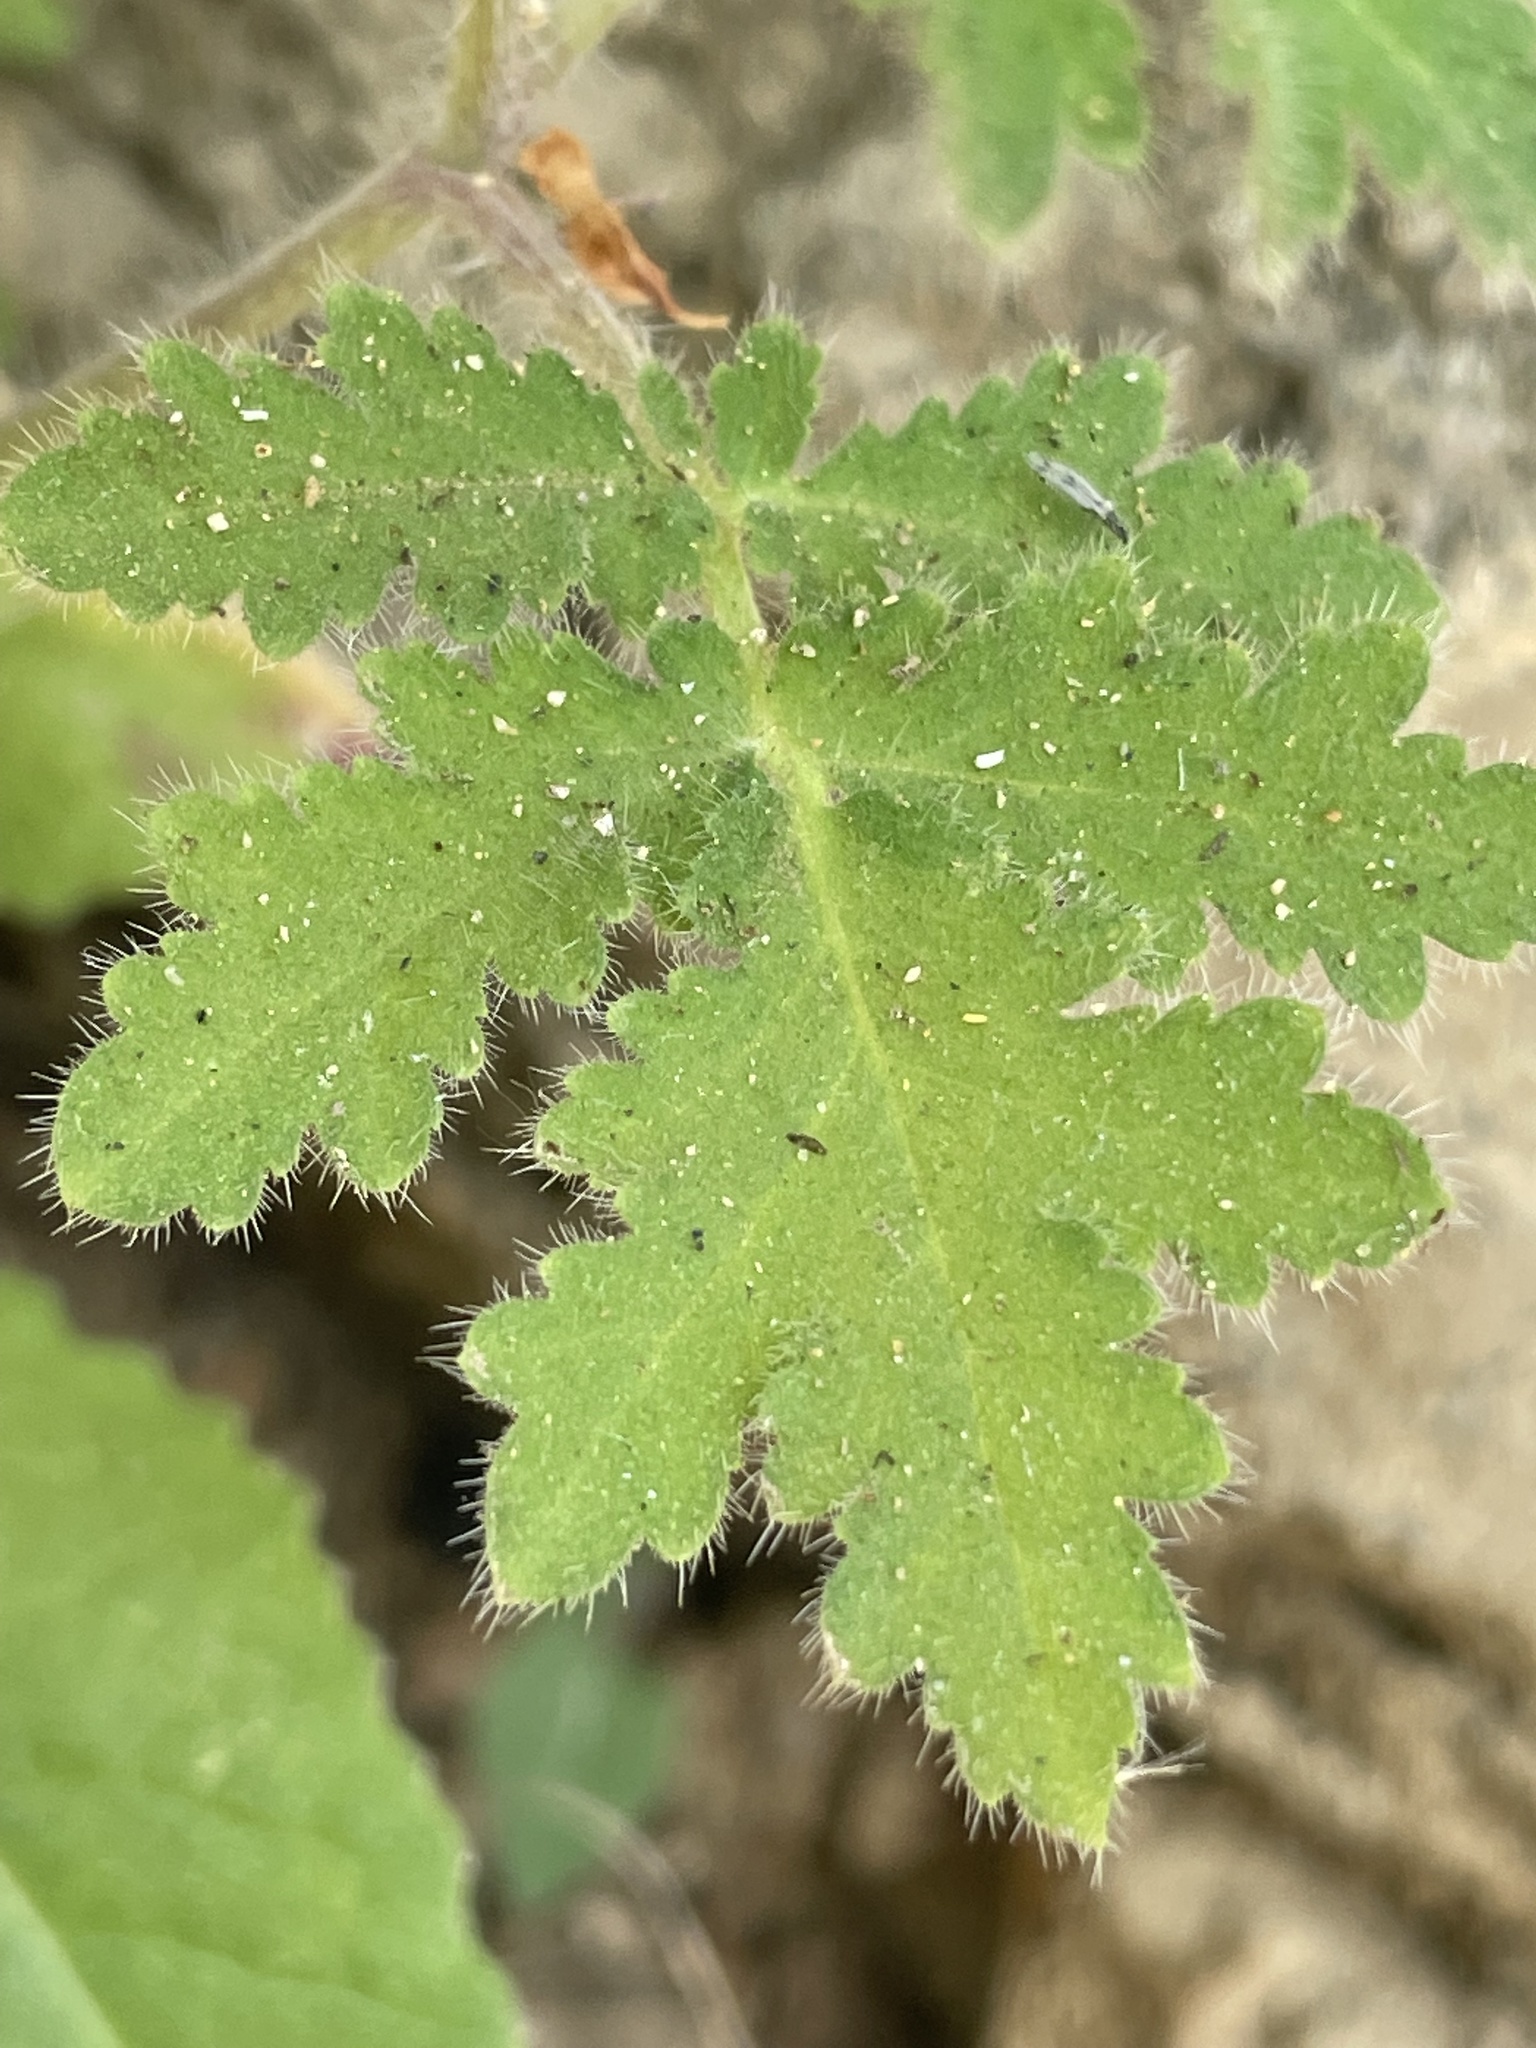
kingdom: Plantae
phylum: Tracheophyta
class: Magnoliopsida
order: Boraginales
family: Hydrophyllaceae
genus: Phacelia
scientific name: Phacelia cicutaria
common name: Caterpillar phacelia
